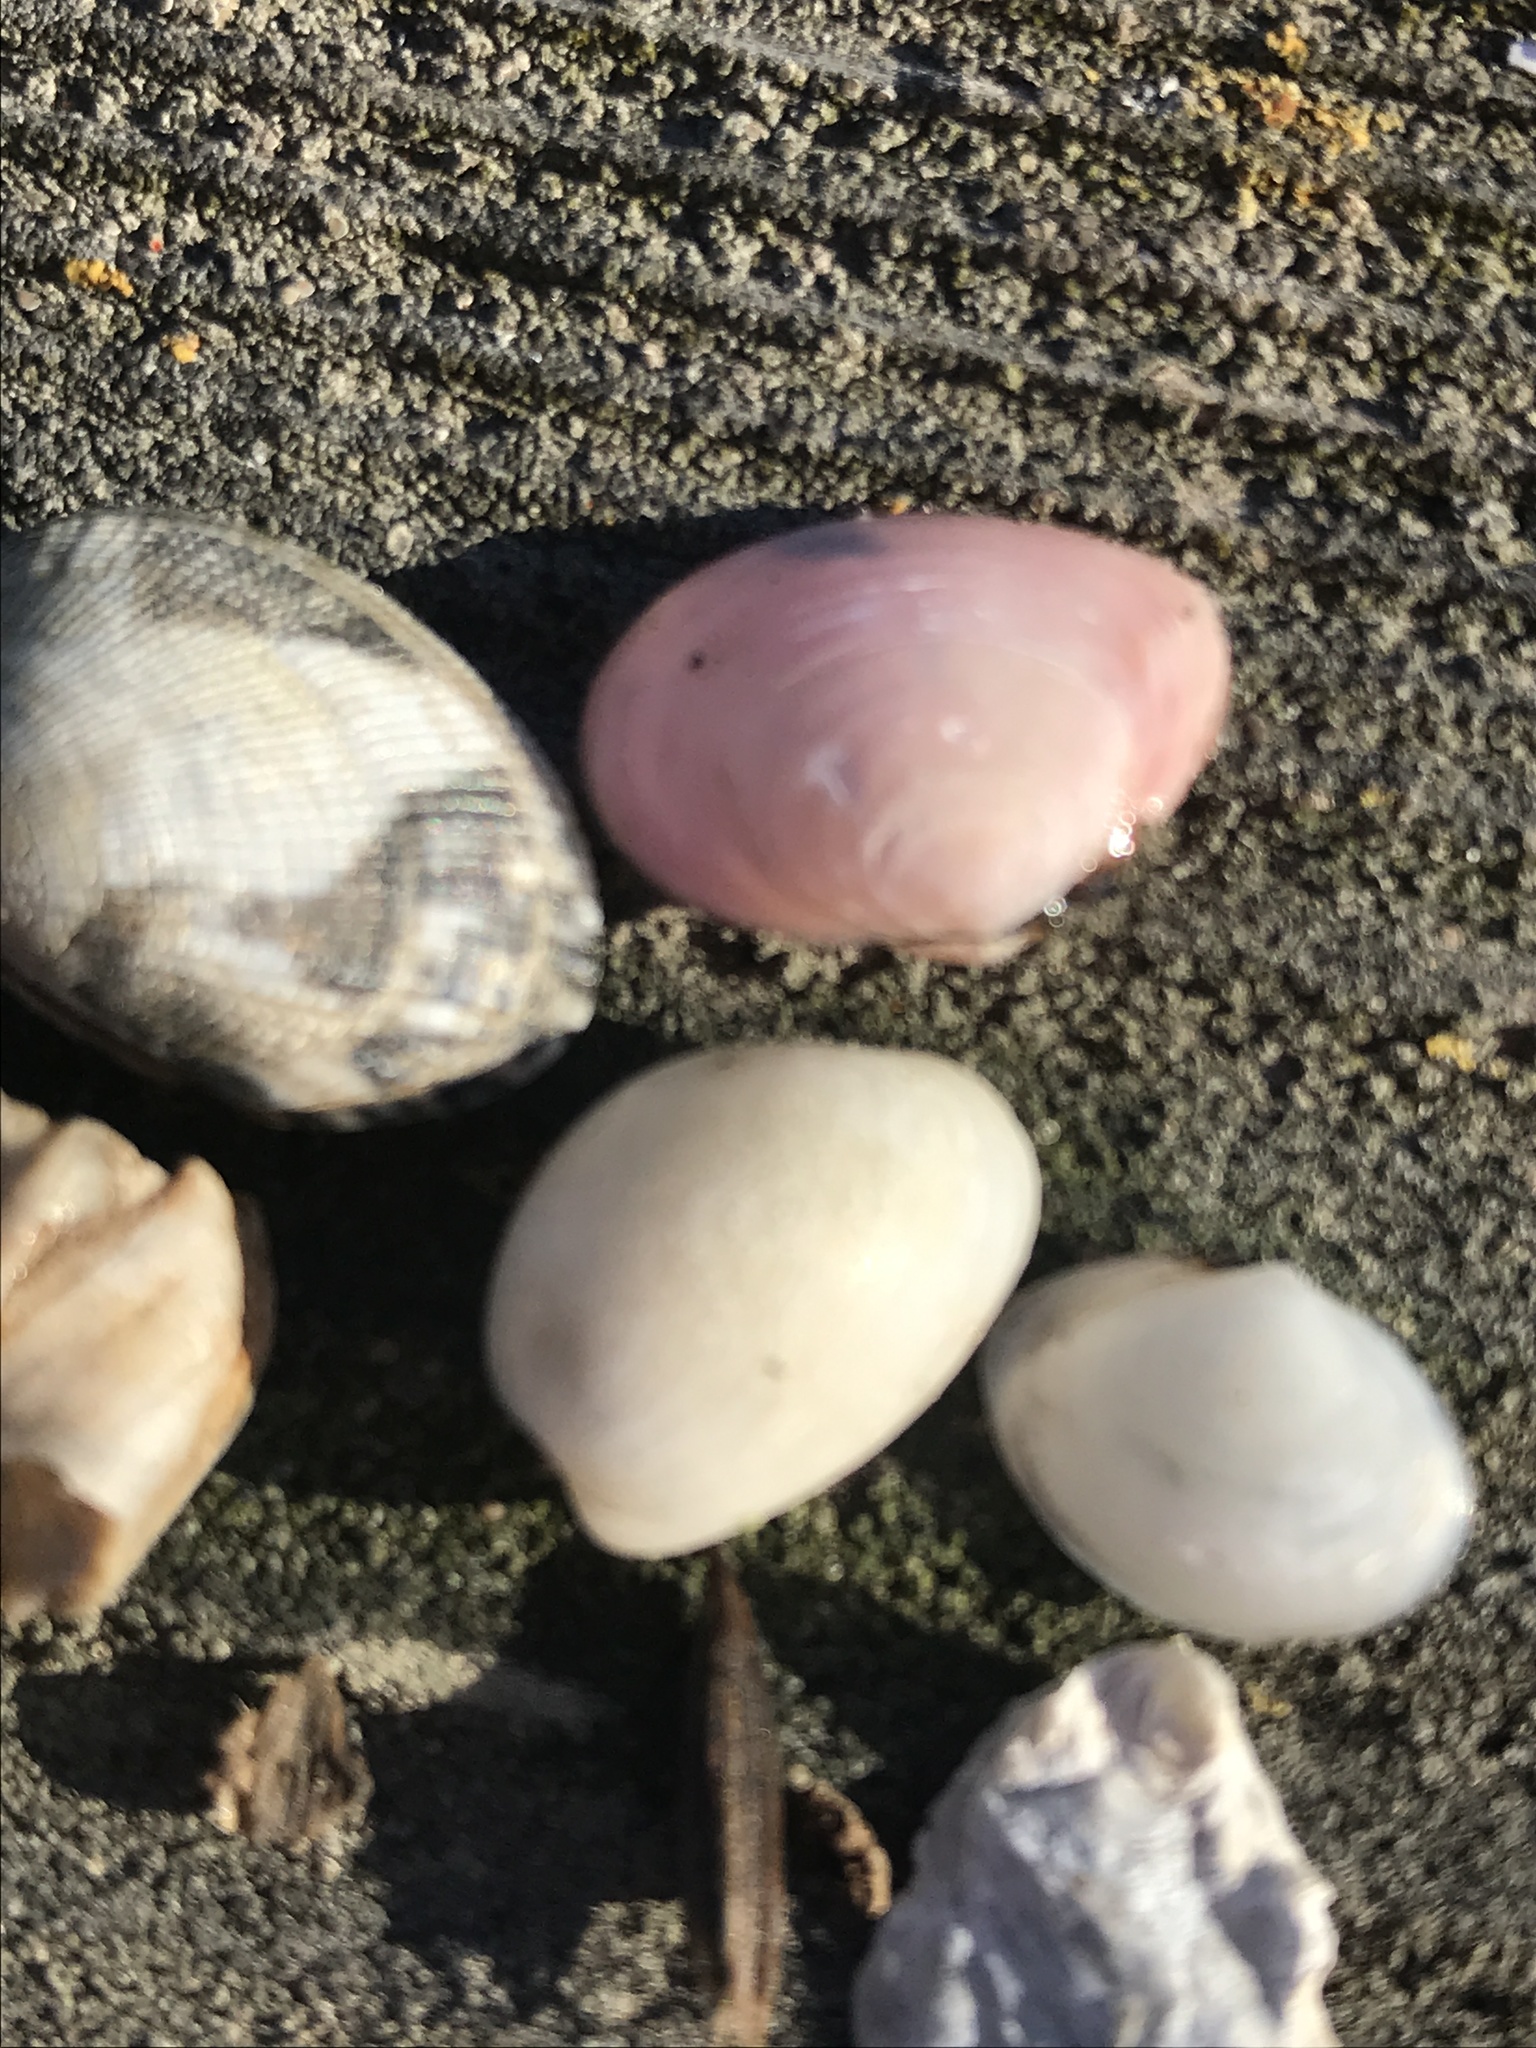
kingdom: Animalia
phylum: Mollusca
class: Bivalvia
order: Venerida
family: Veneridae
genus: Ruditapes
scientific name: Ruditapes philippinarum
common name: Manila clam
